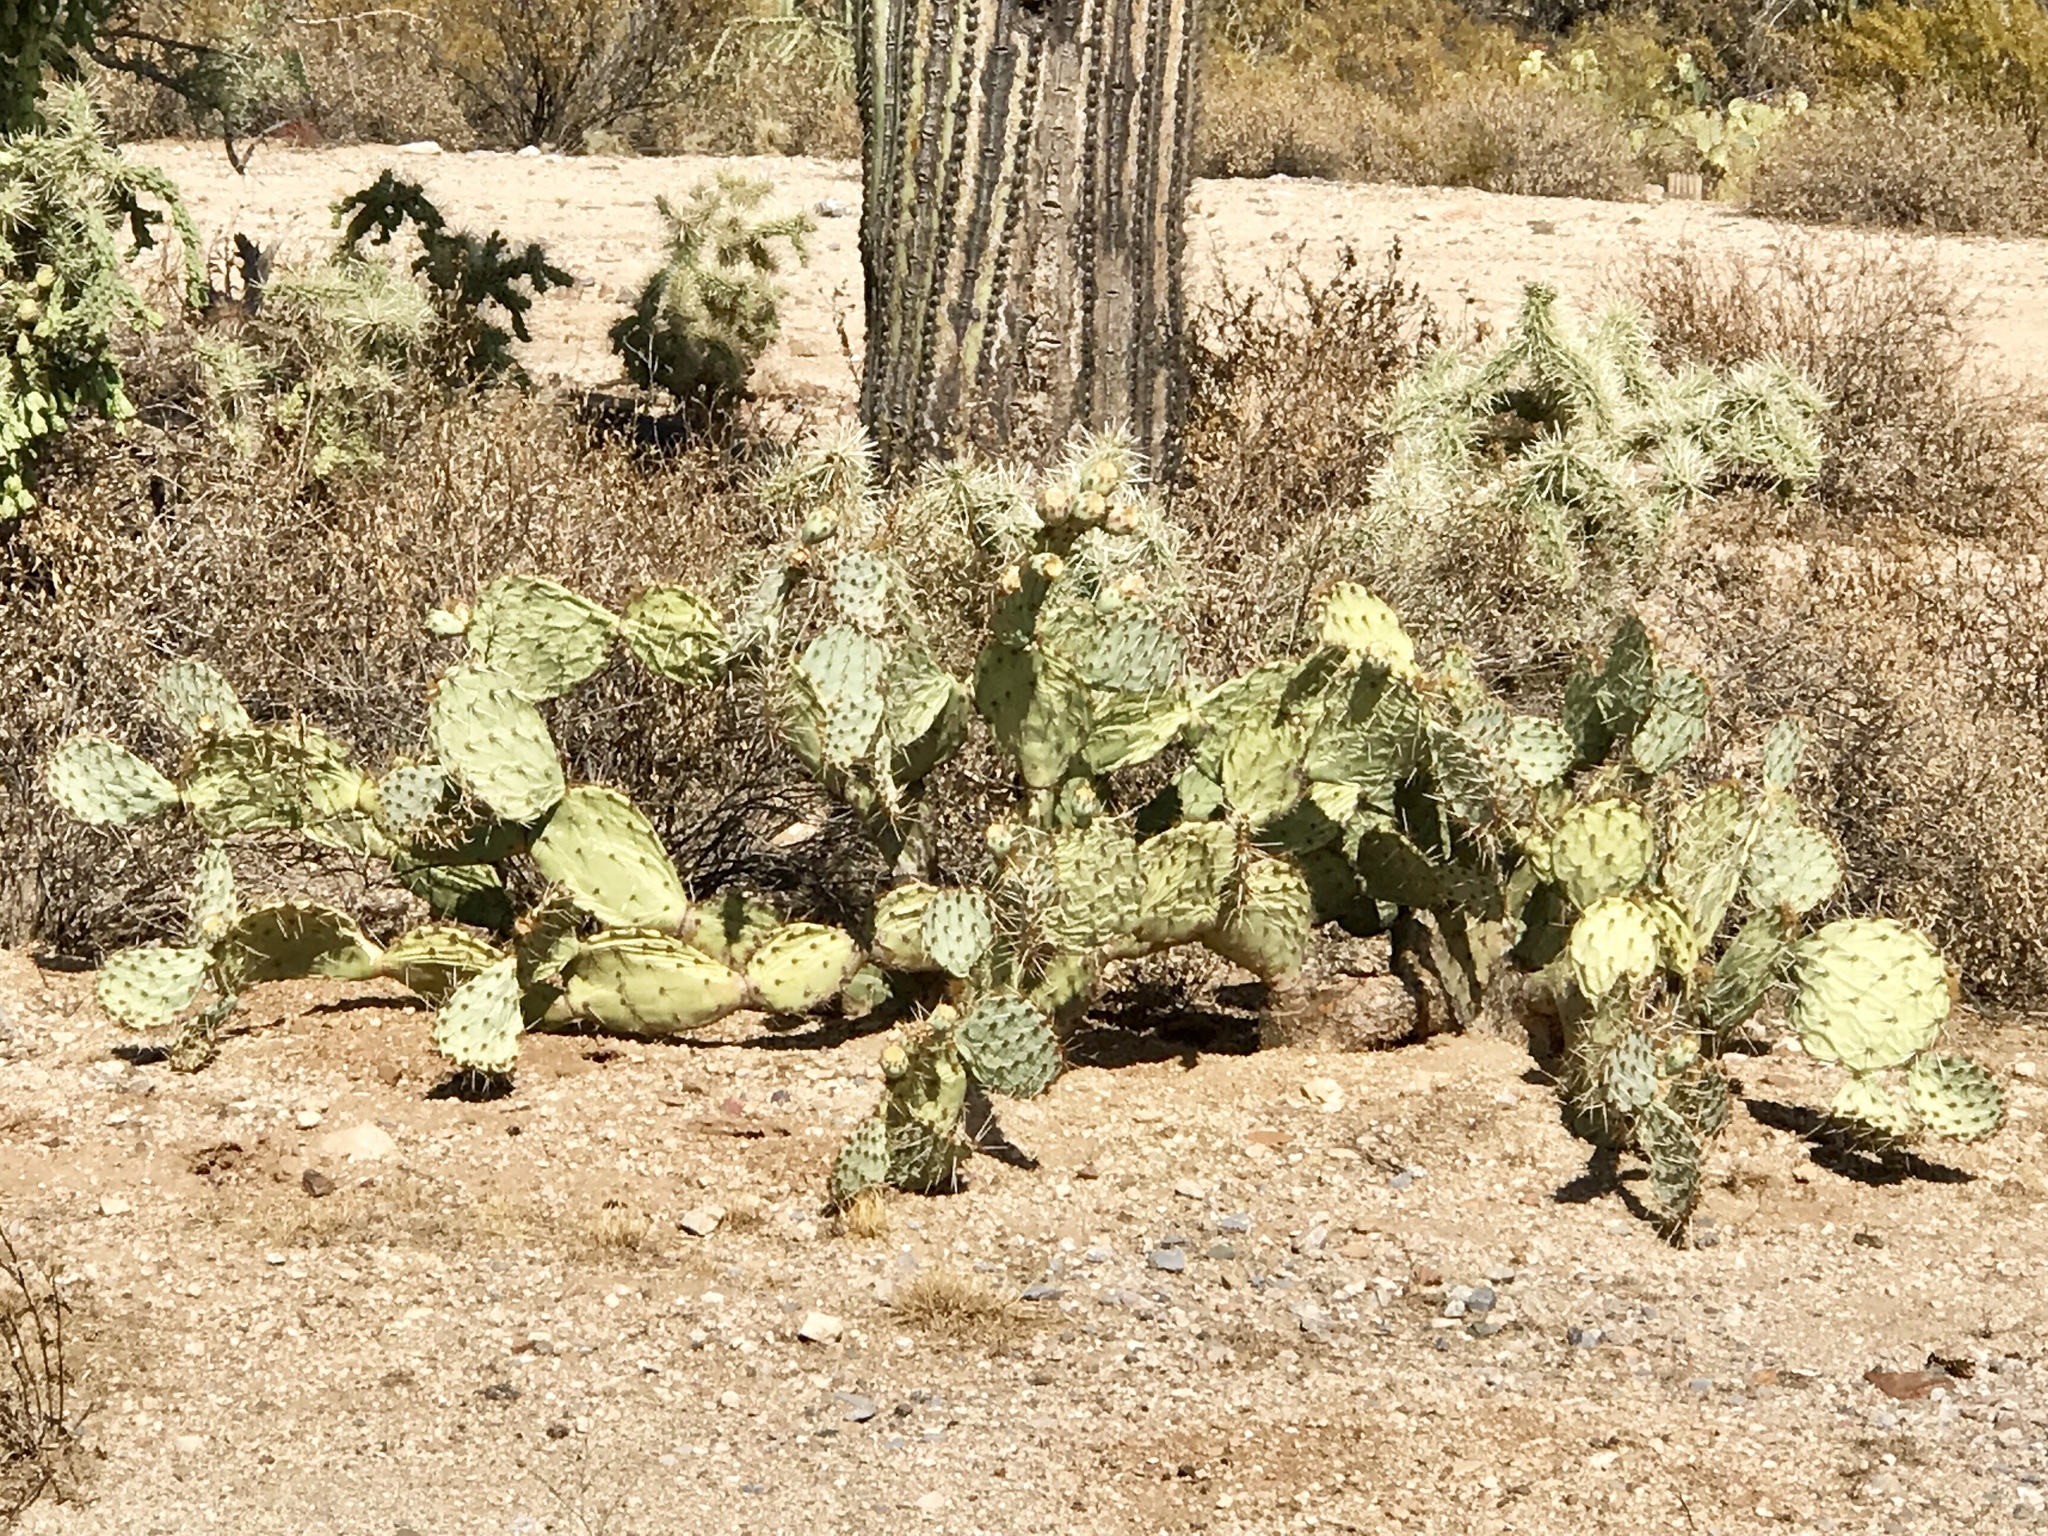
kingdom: Plantae
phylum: Tracheophyta
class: Magnoliopsida
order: Caryophyllales
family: Cactaceae
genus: Opuntia
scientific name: Opuntia engelmannii
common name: Cactus-apple
